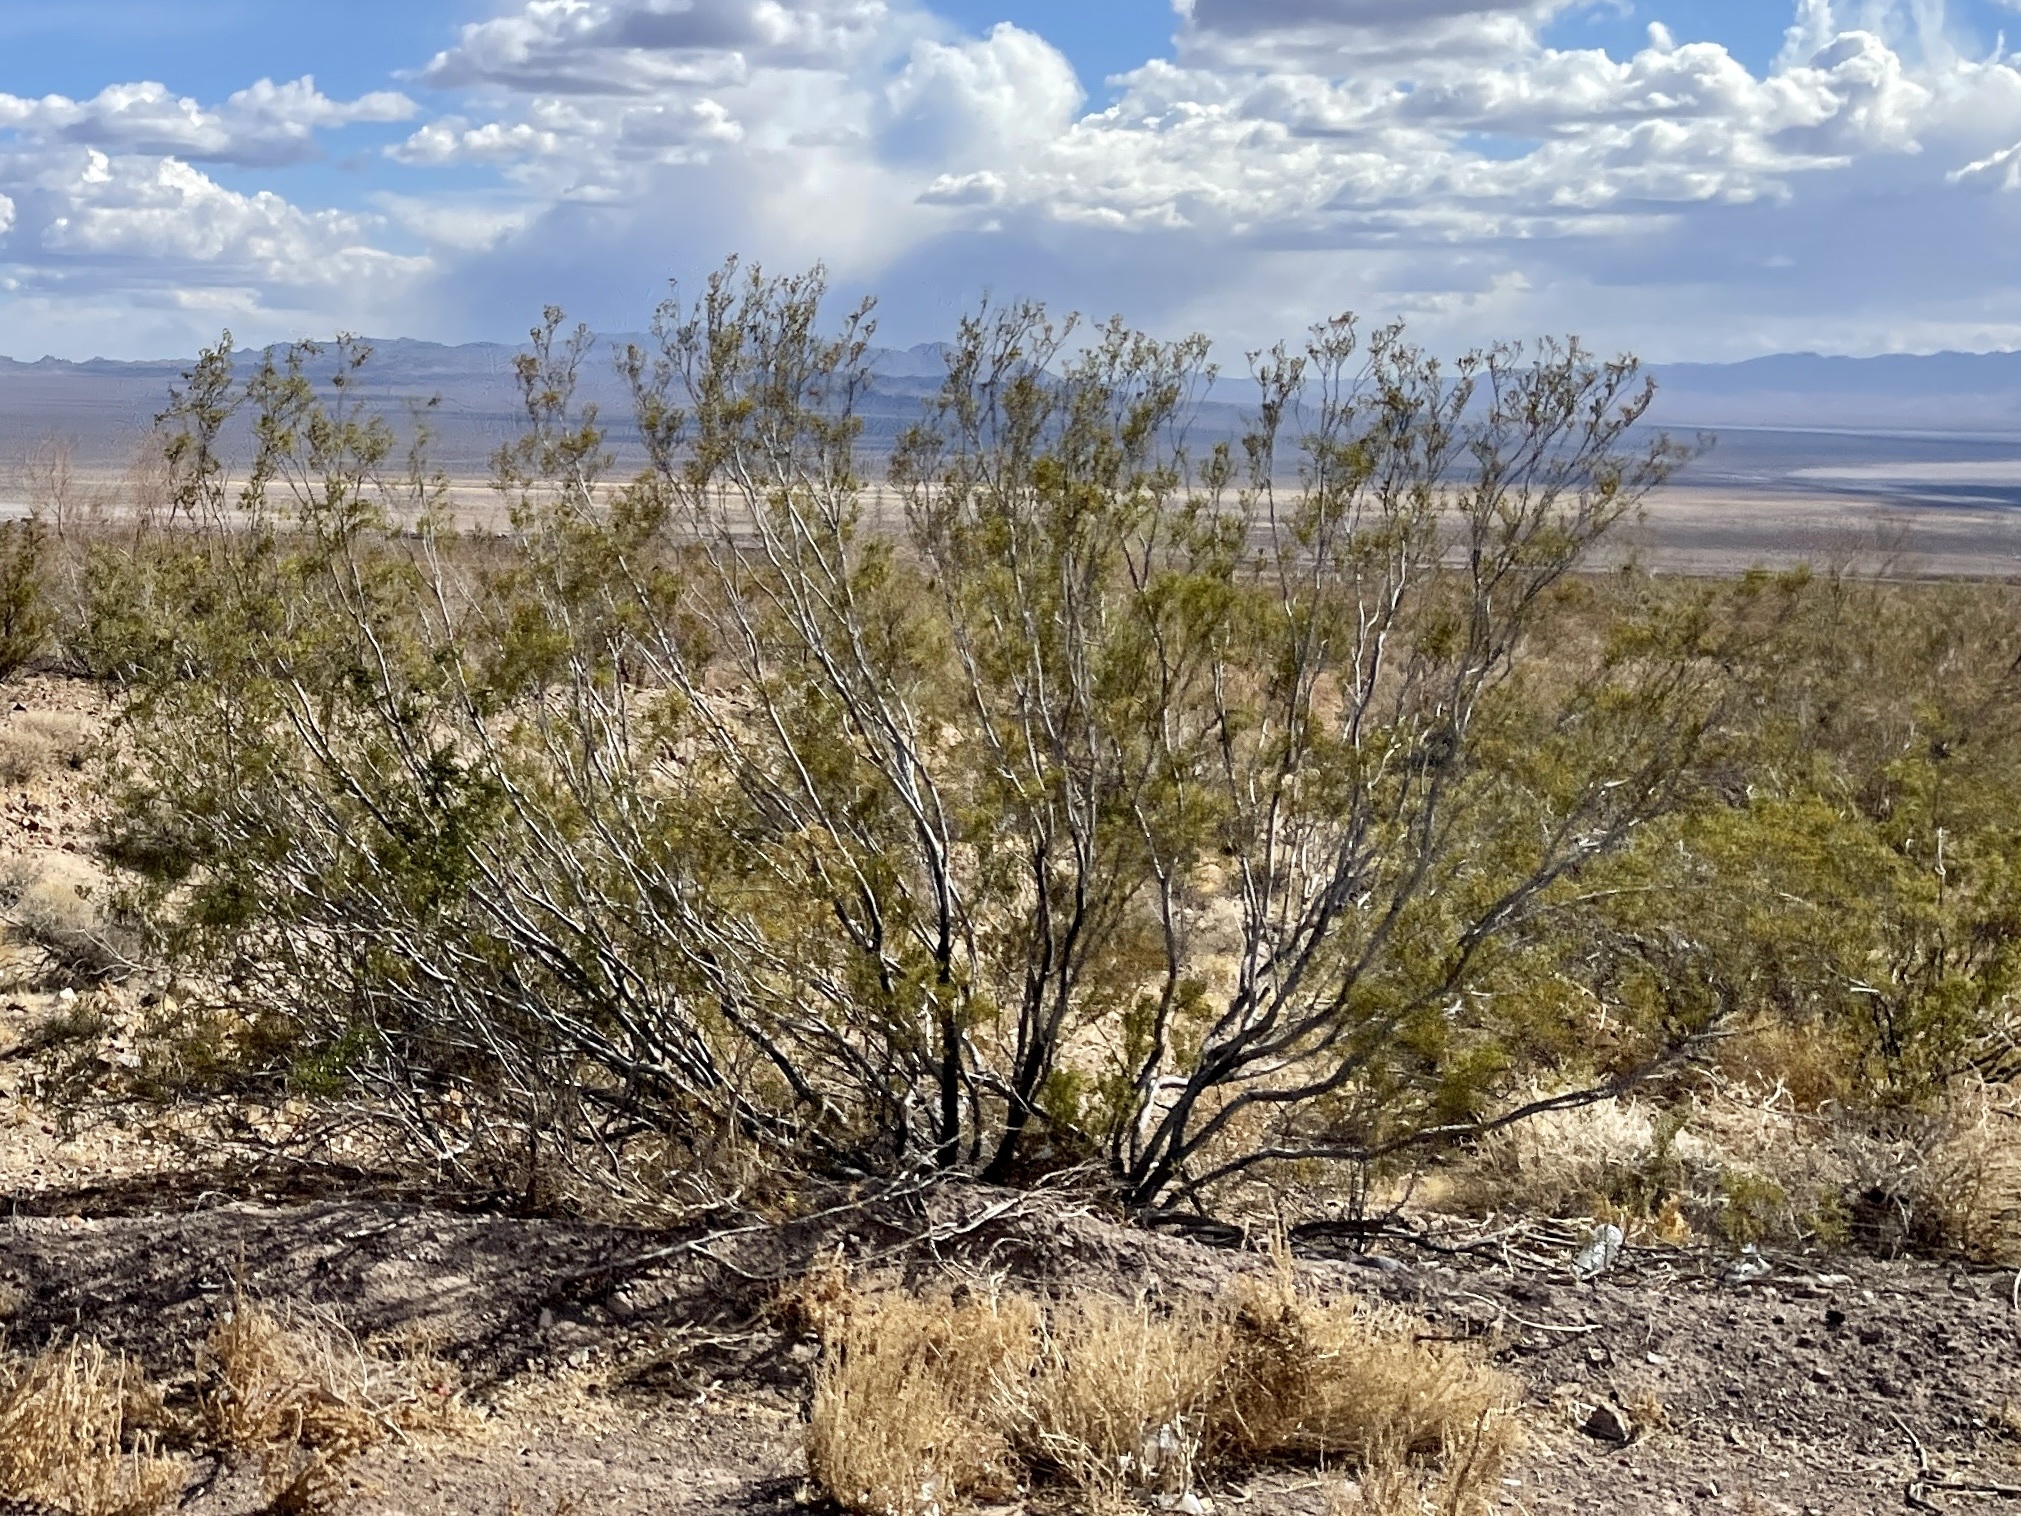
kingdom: Plantae
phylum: Tracheophyta
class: Magnoliopsida
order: Zygophyllales
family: Zygophyllaceae
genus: Larrea
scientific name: Larrea tridentata
